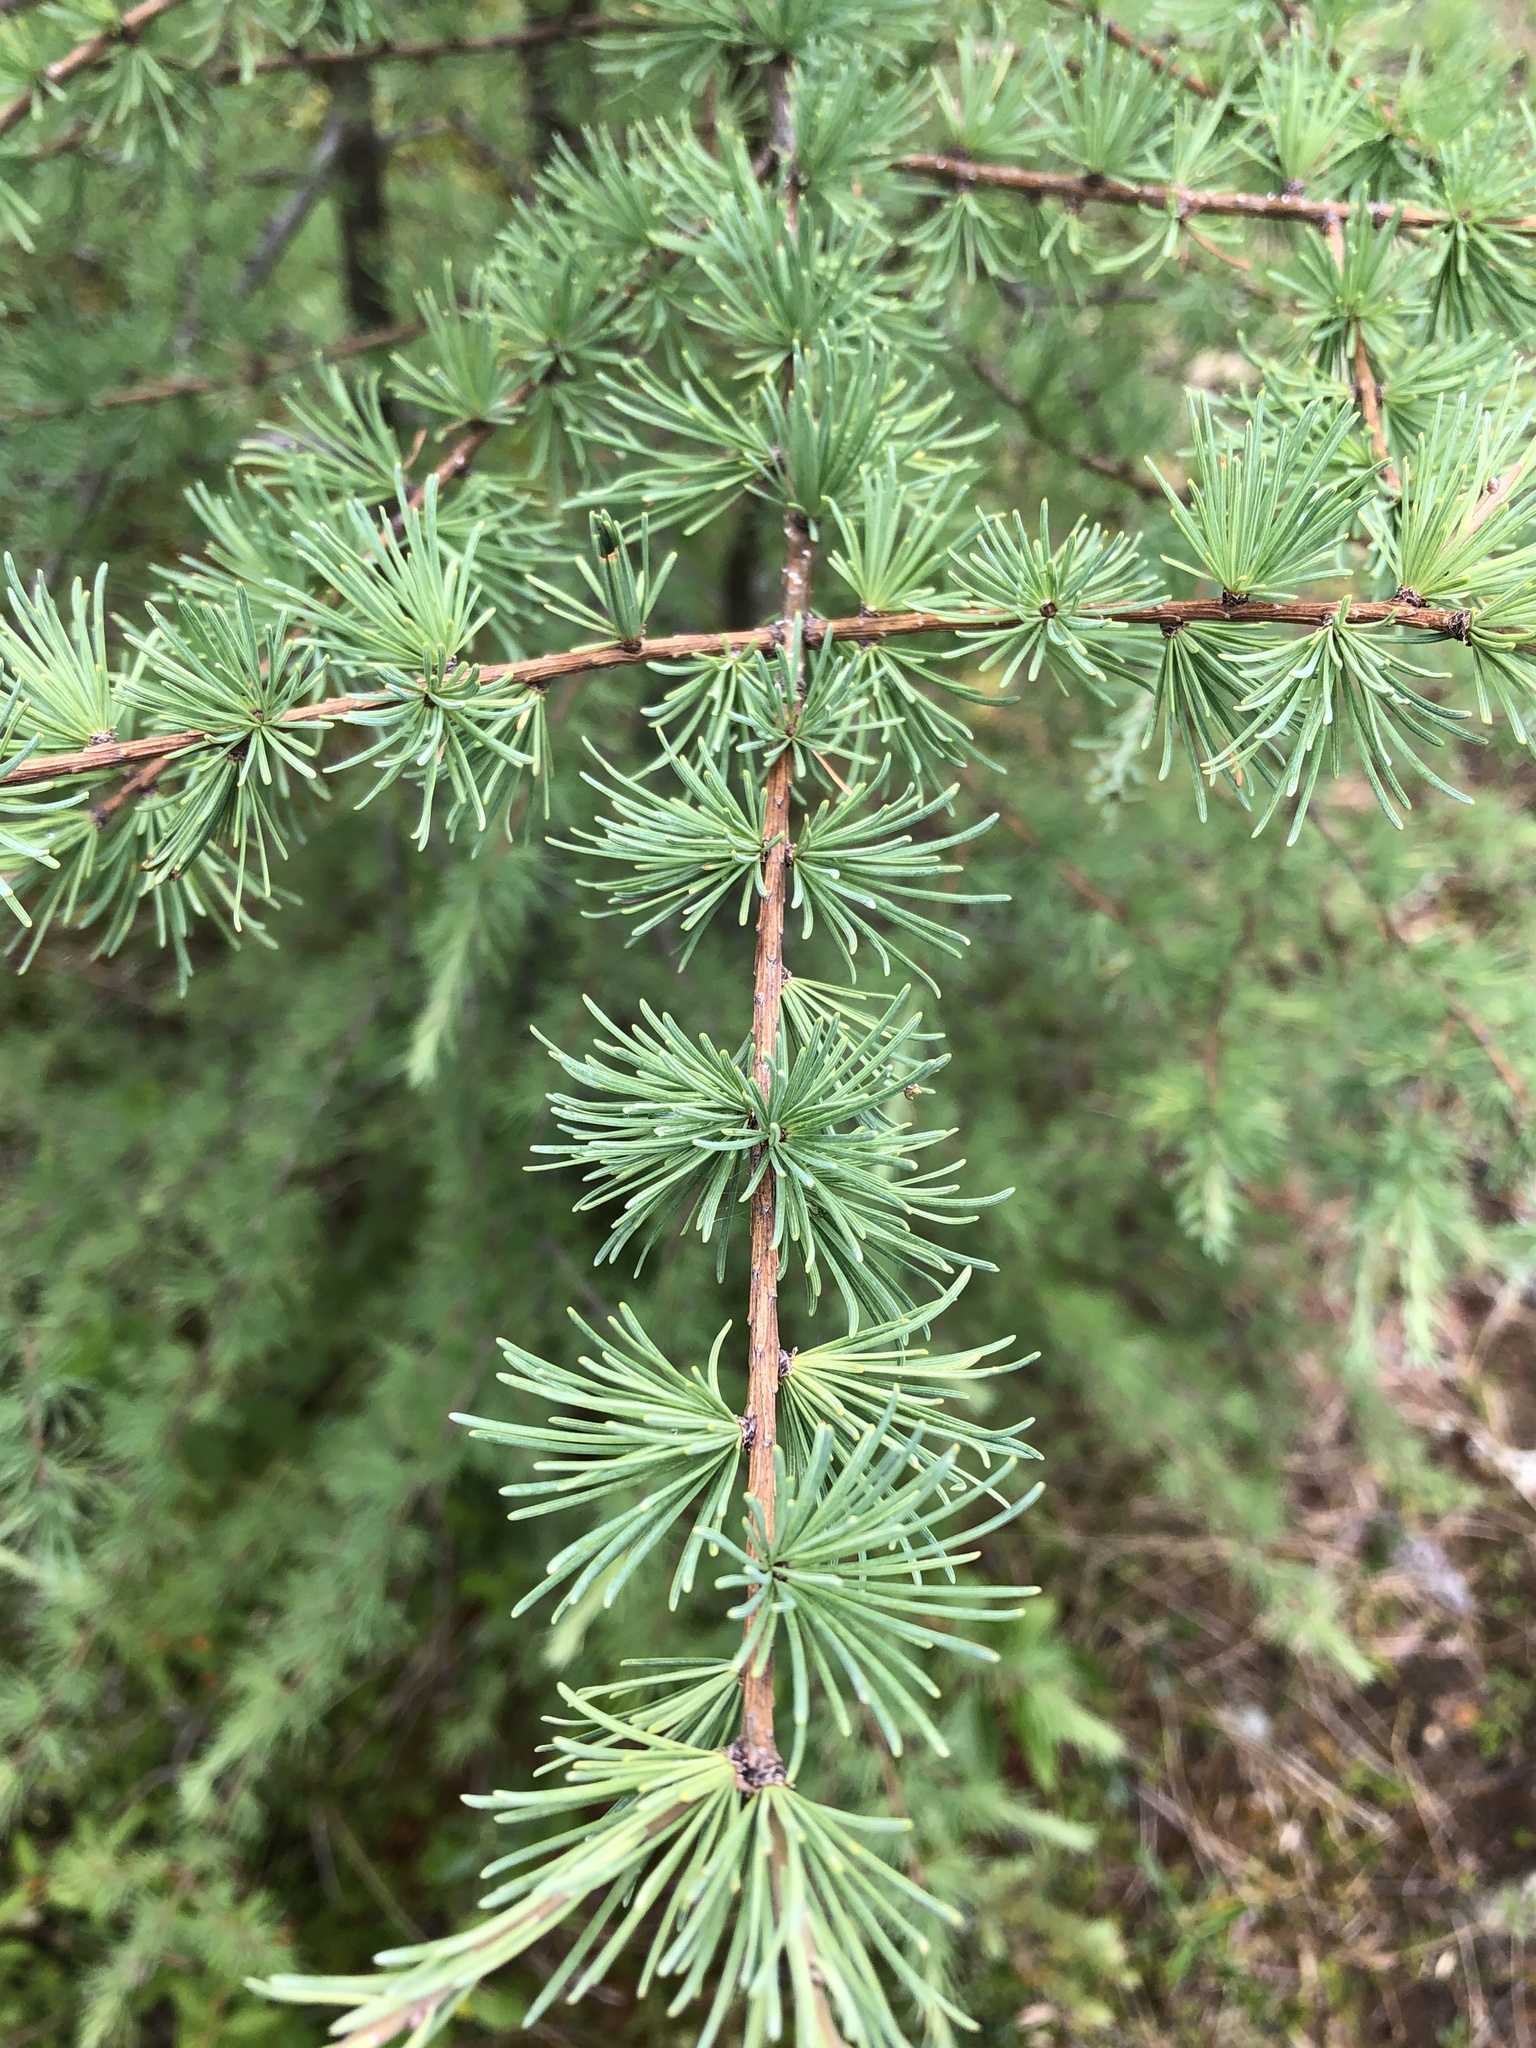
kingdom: Plantae
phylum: Tracheophyta
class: Pinopsida
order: Pinales
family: Pinaceae
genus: Larix
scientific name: Larix laricina
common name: American larch
